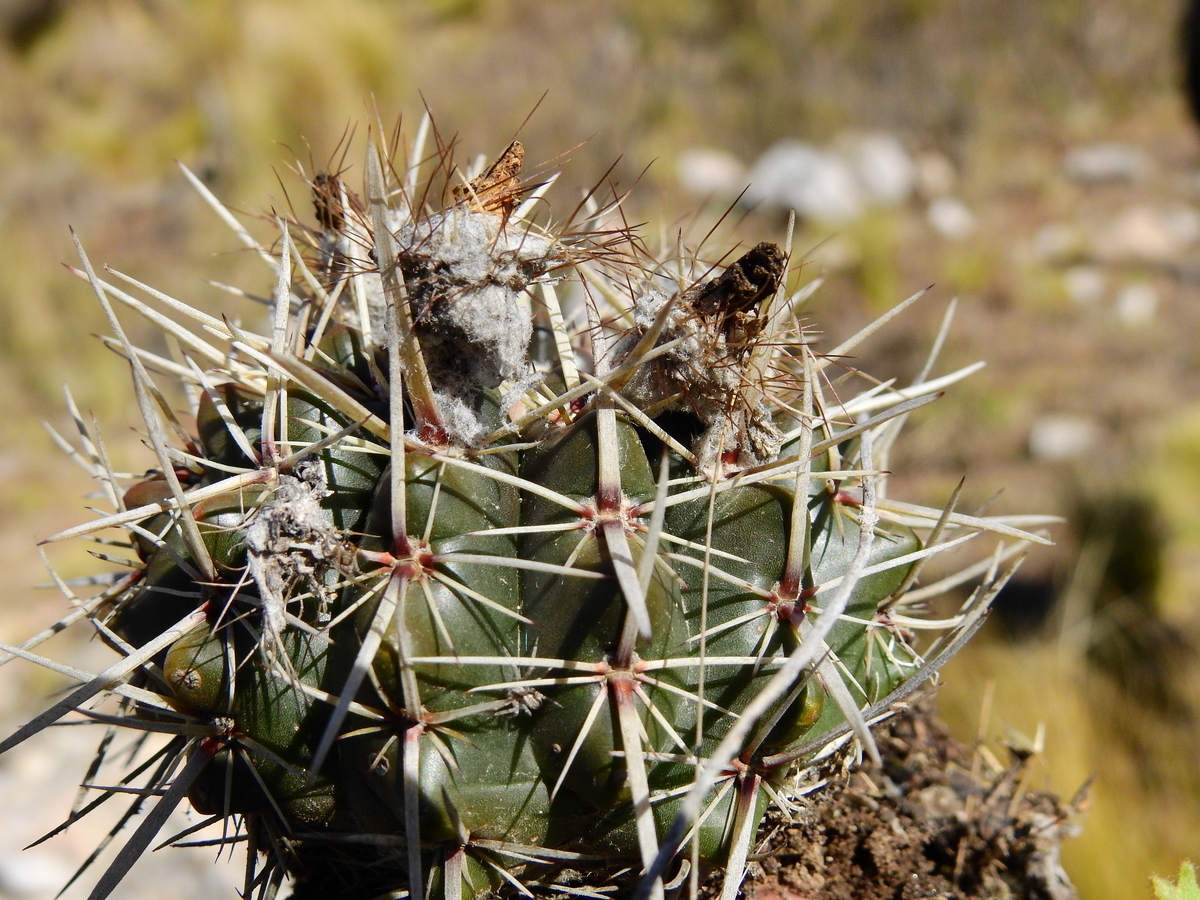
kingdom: Plantae
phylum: Tracheophyta
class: Magnoliopsida
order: Caryophyllales
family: Cactaceae
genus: Parodia
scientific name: Parodia mammulosa
